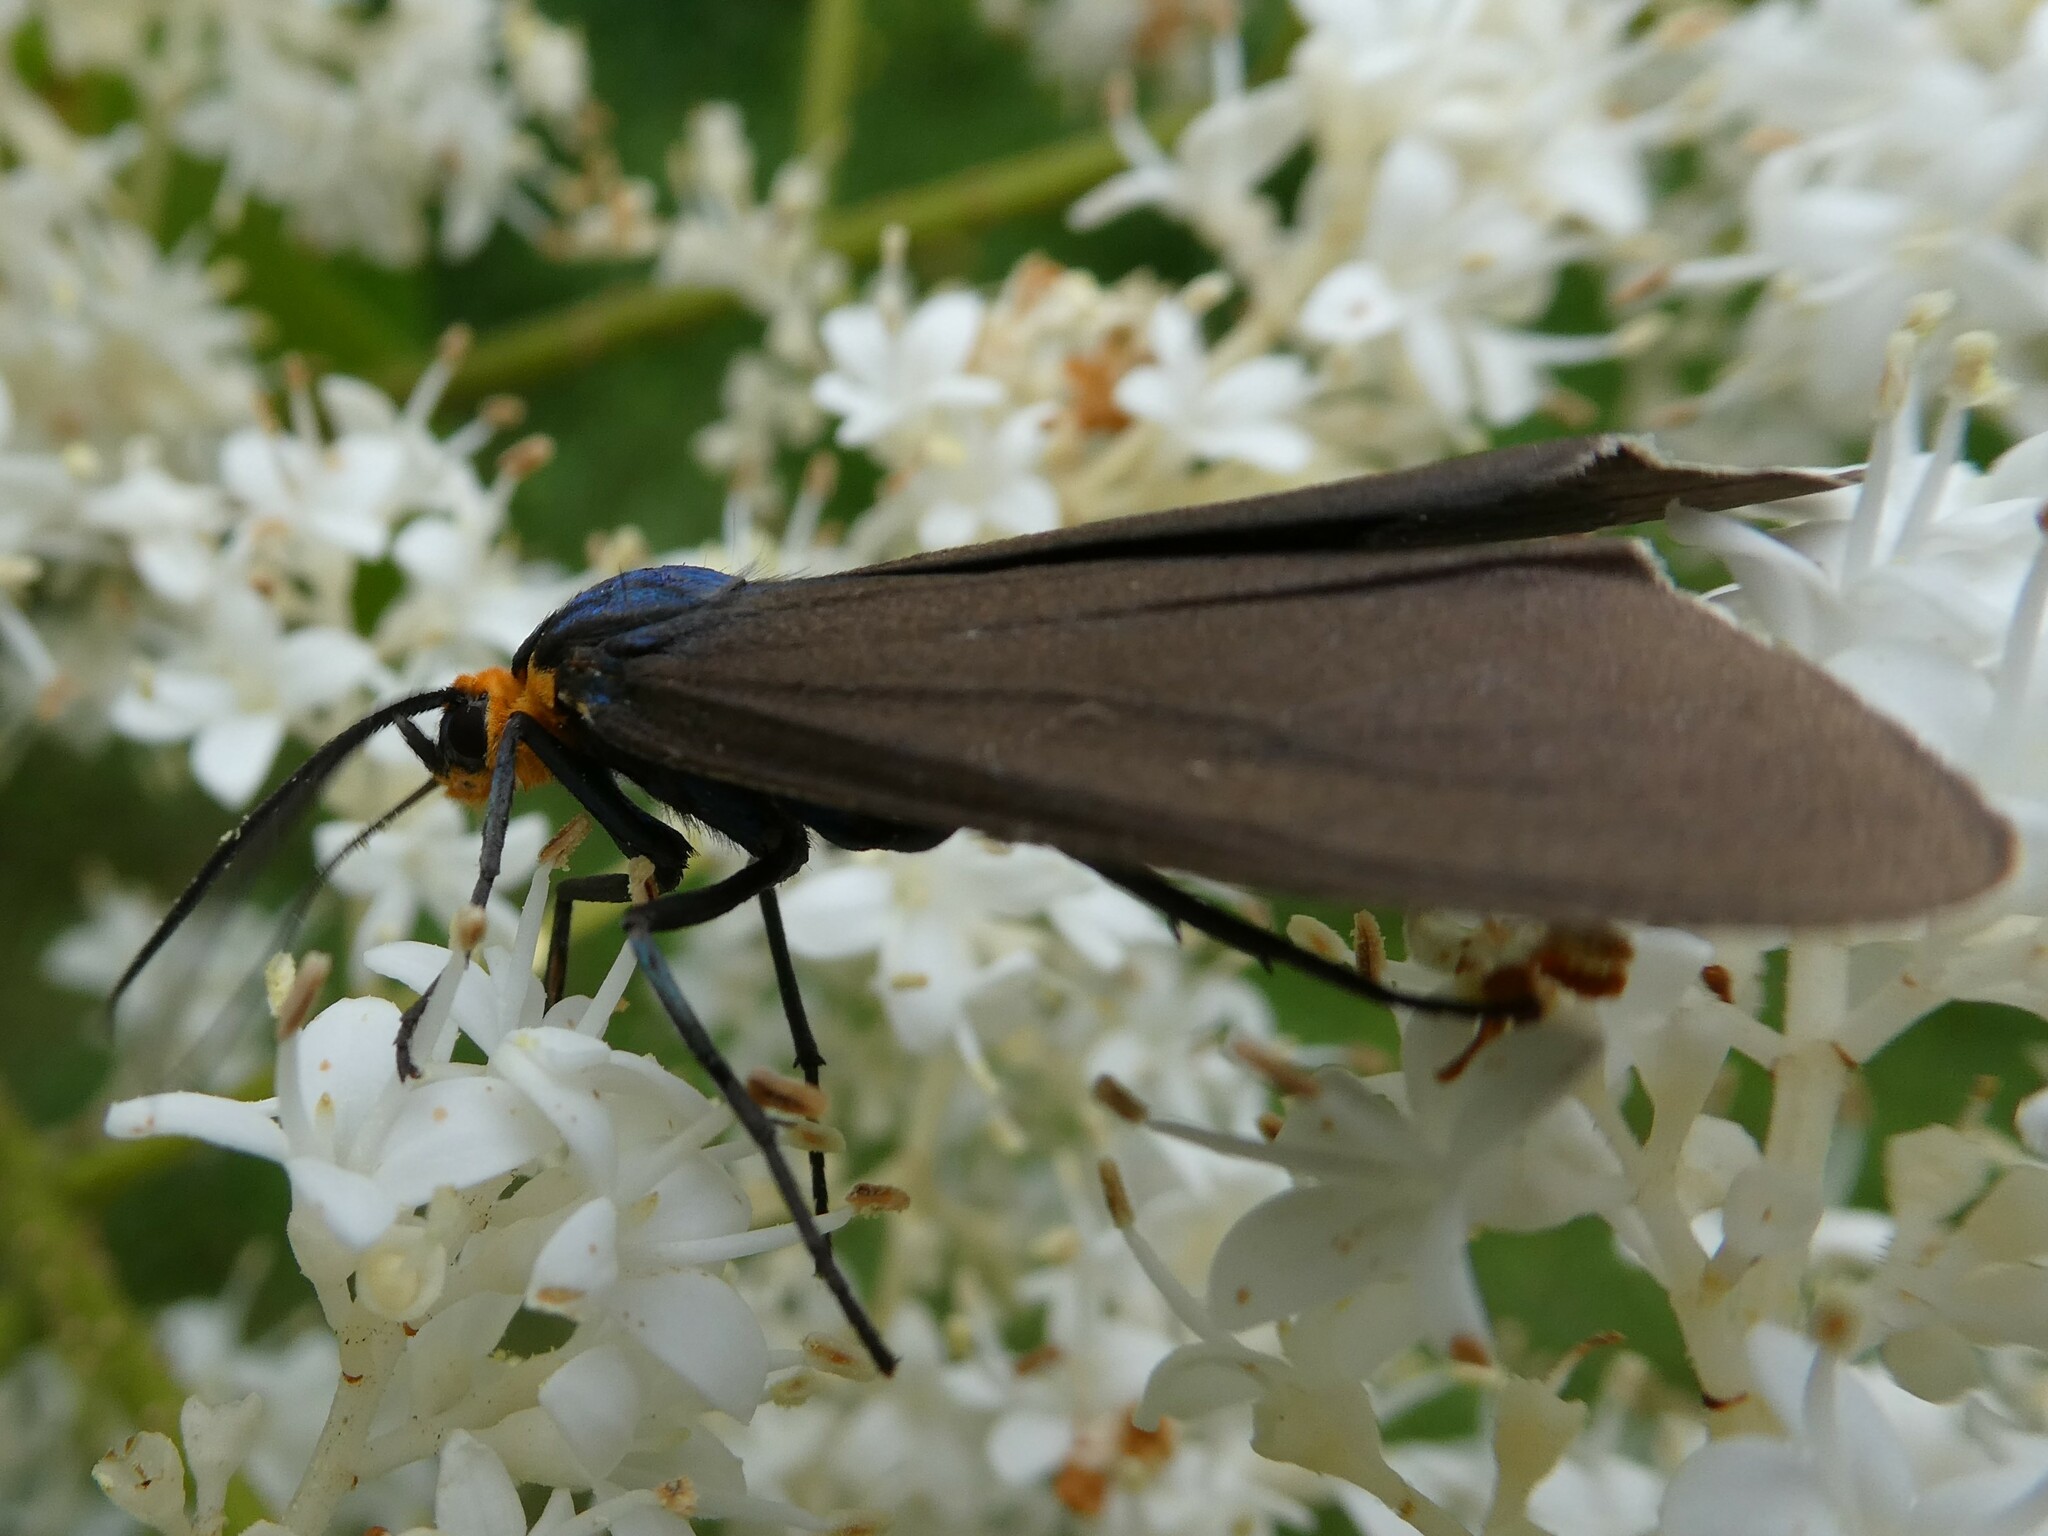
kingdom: Animalia
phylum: Arthropoda
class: Insecta
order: Lepidoptera
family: Erebidae
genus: Ctenucha
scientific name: Ctenucha virginica
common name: Virginia ctenucha moth
